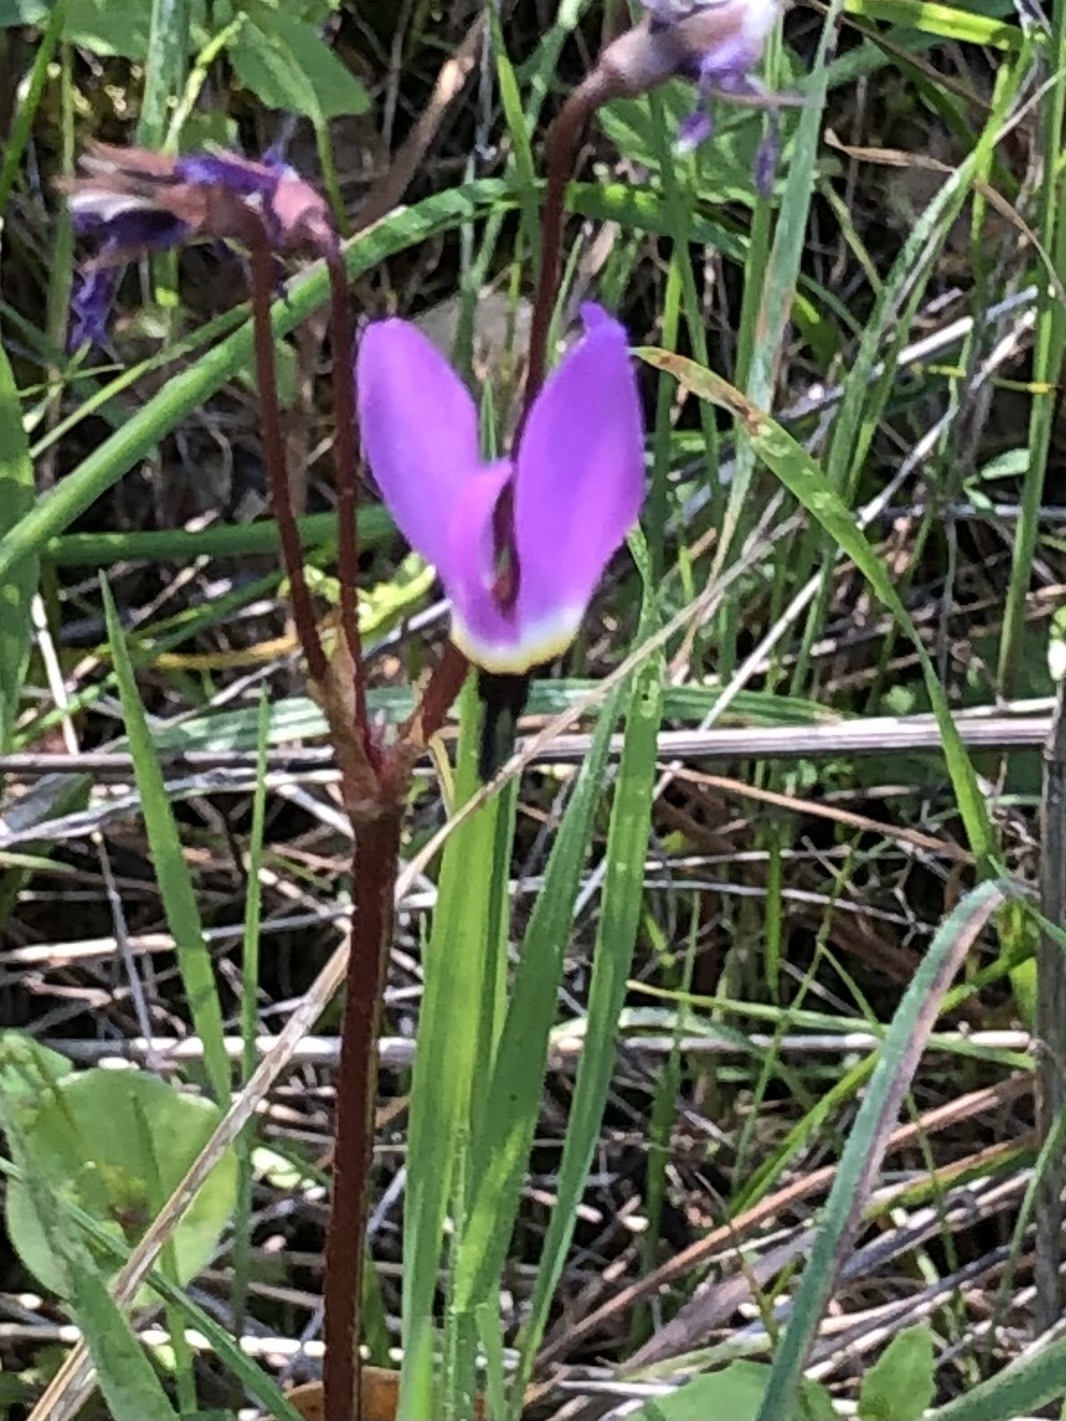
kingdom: Plantae
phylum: Tracheophyta
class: Magnoliopsida
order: Ericales
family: Primulaceae
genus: Dodecatheon
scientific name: Dodecatheon hendersonii
